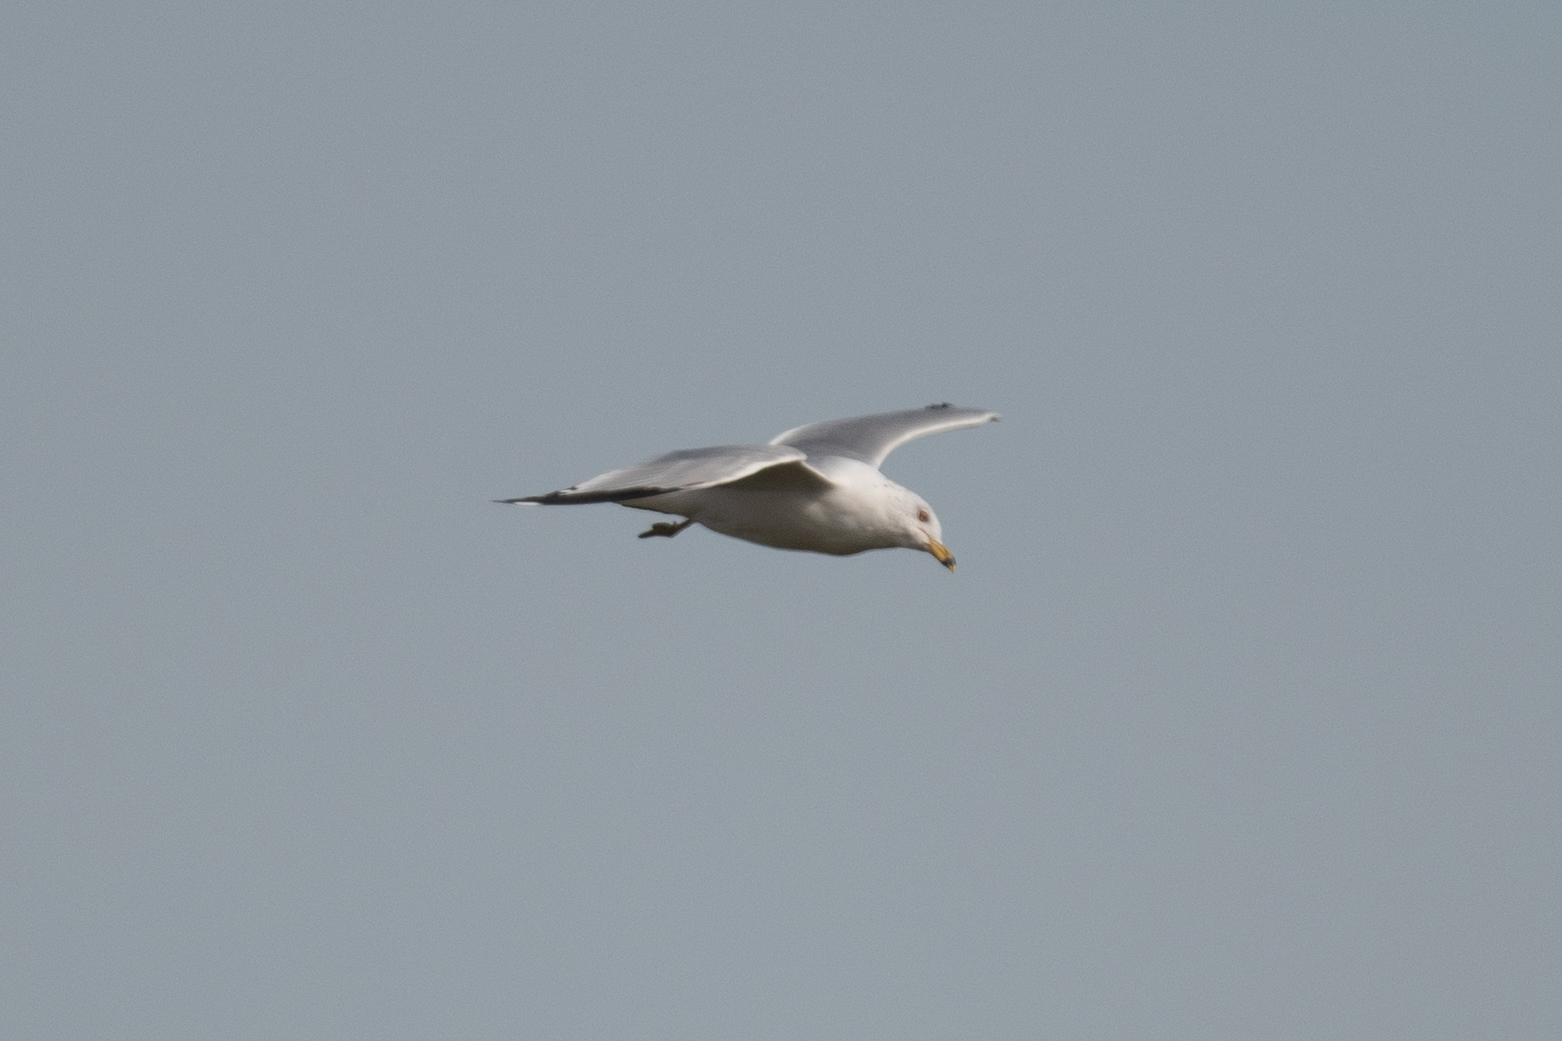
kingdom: Animalia
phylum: Chordata
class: Aves
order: Charadriiformes
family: Laridae
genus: Larus
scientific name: Larus delawarensis
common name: Ring-billed gull
